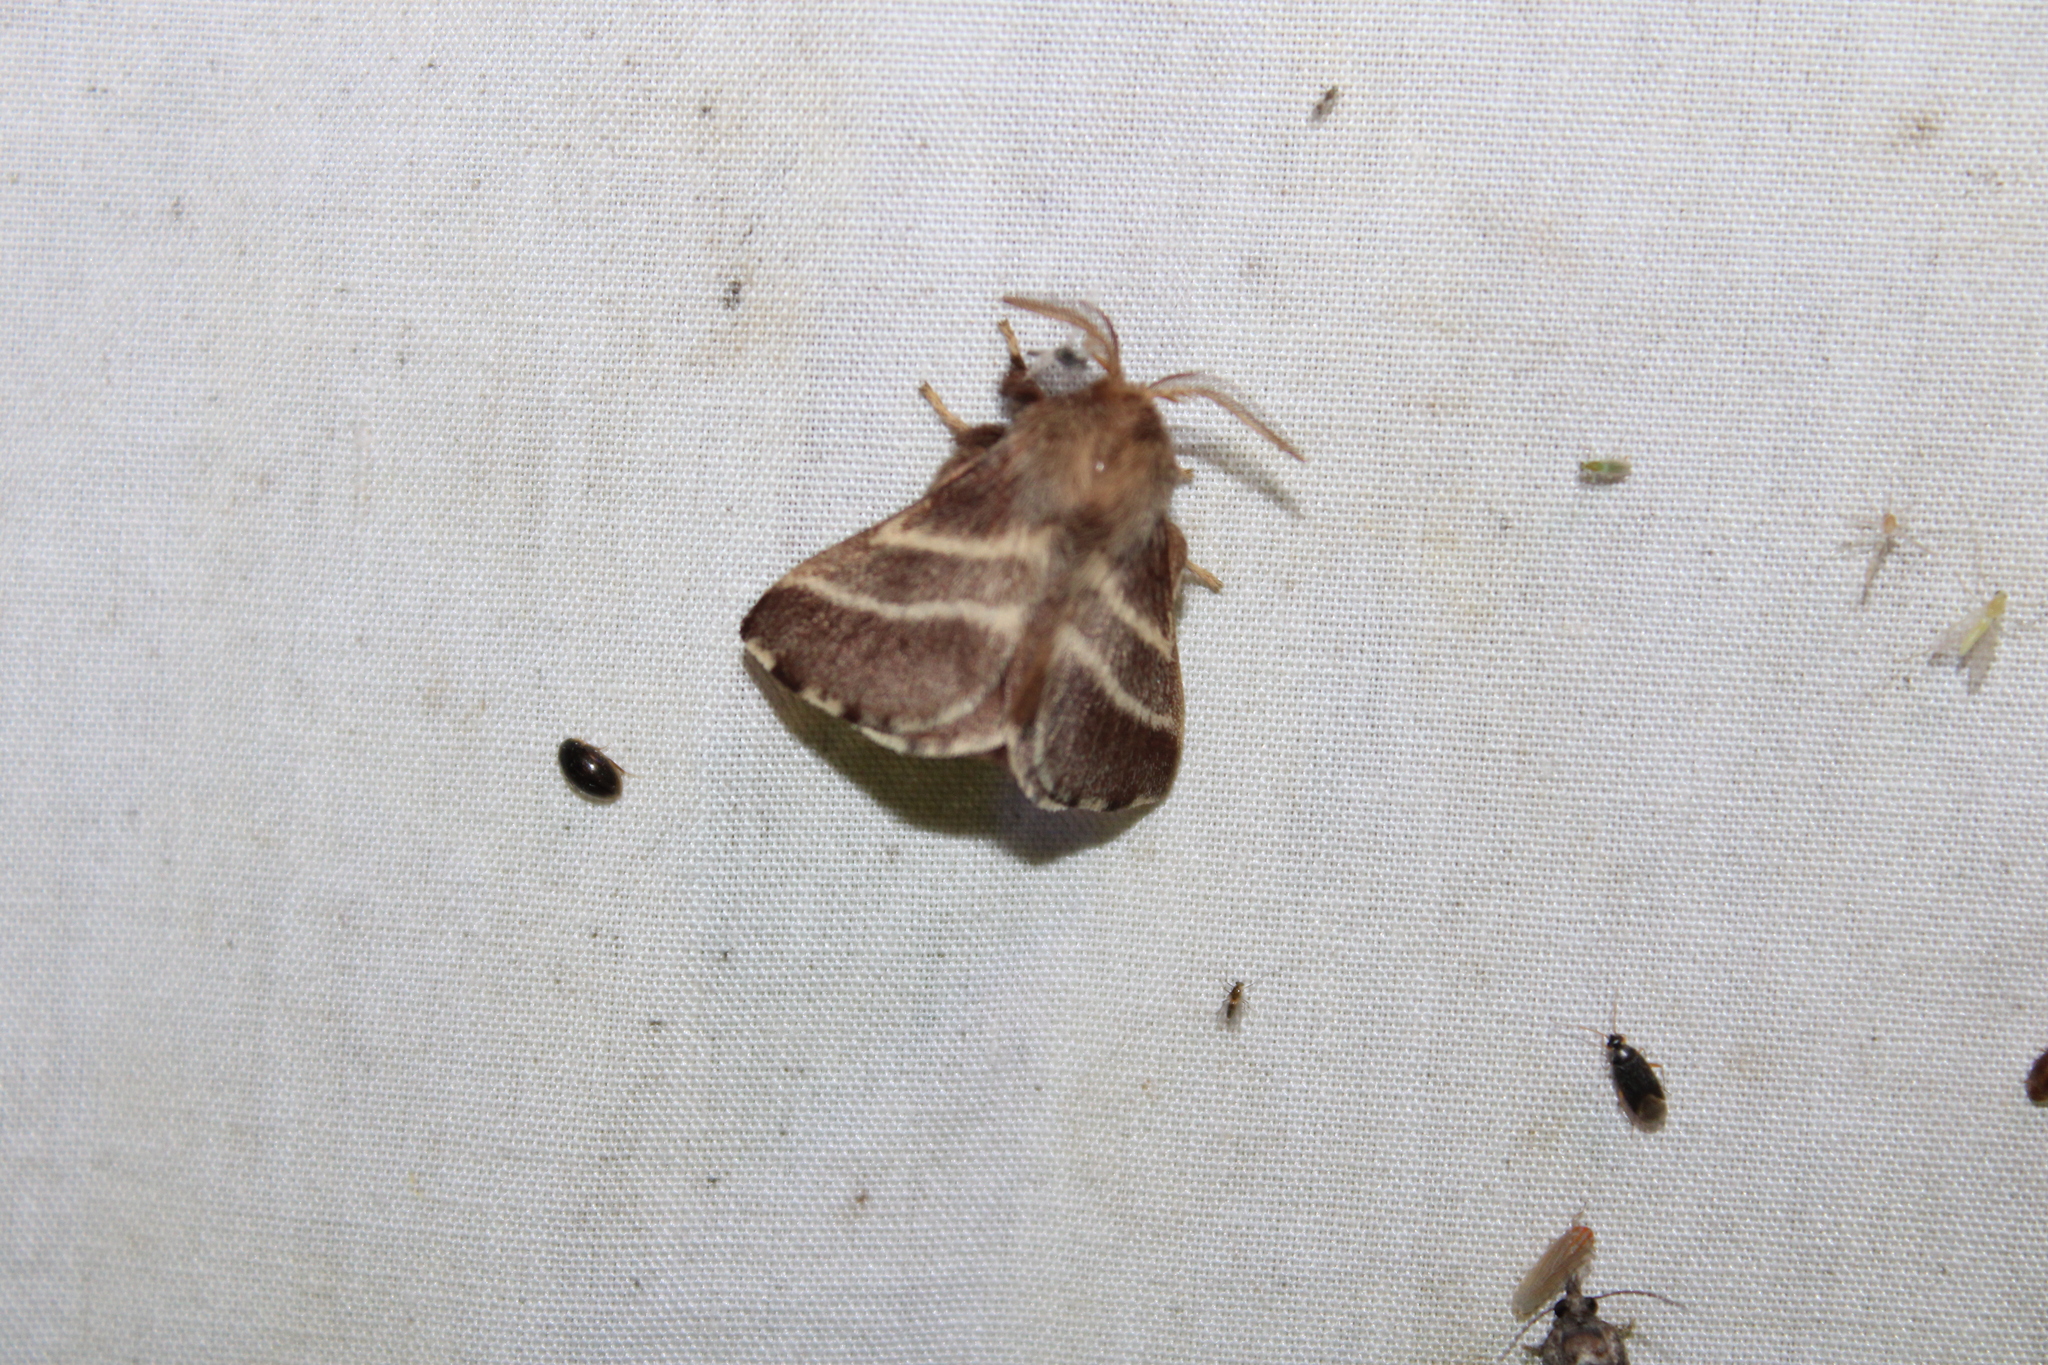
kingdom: Animalia
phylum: Arthropoda
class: Insecta
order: Lepidoptera
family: Lasiocampidae
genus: Malacosoma
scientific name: Malacosoma americana
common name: Eastern tent caterpillar moth
